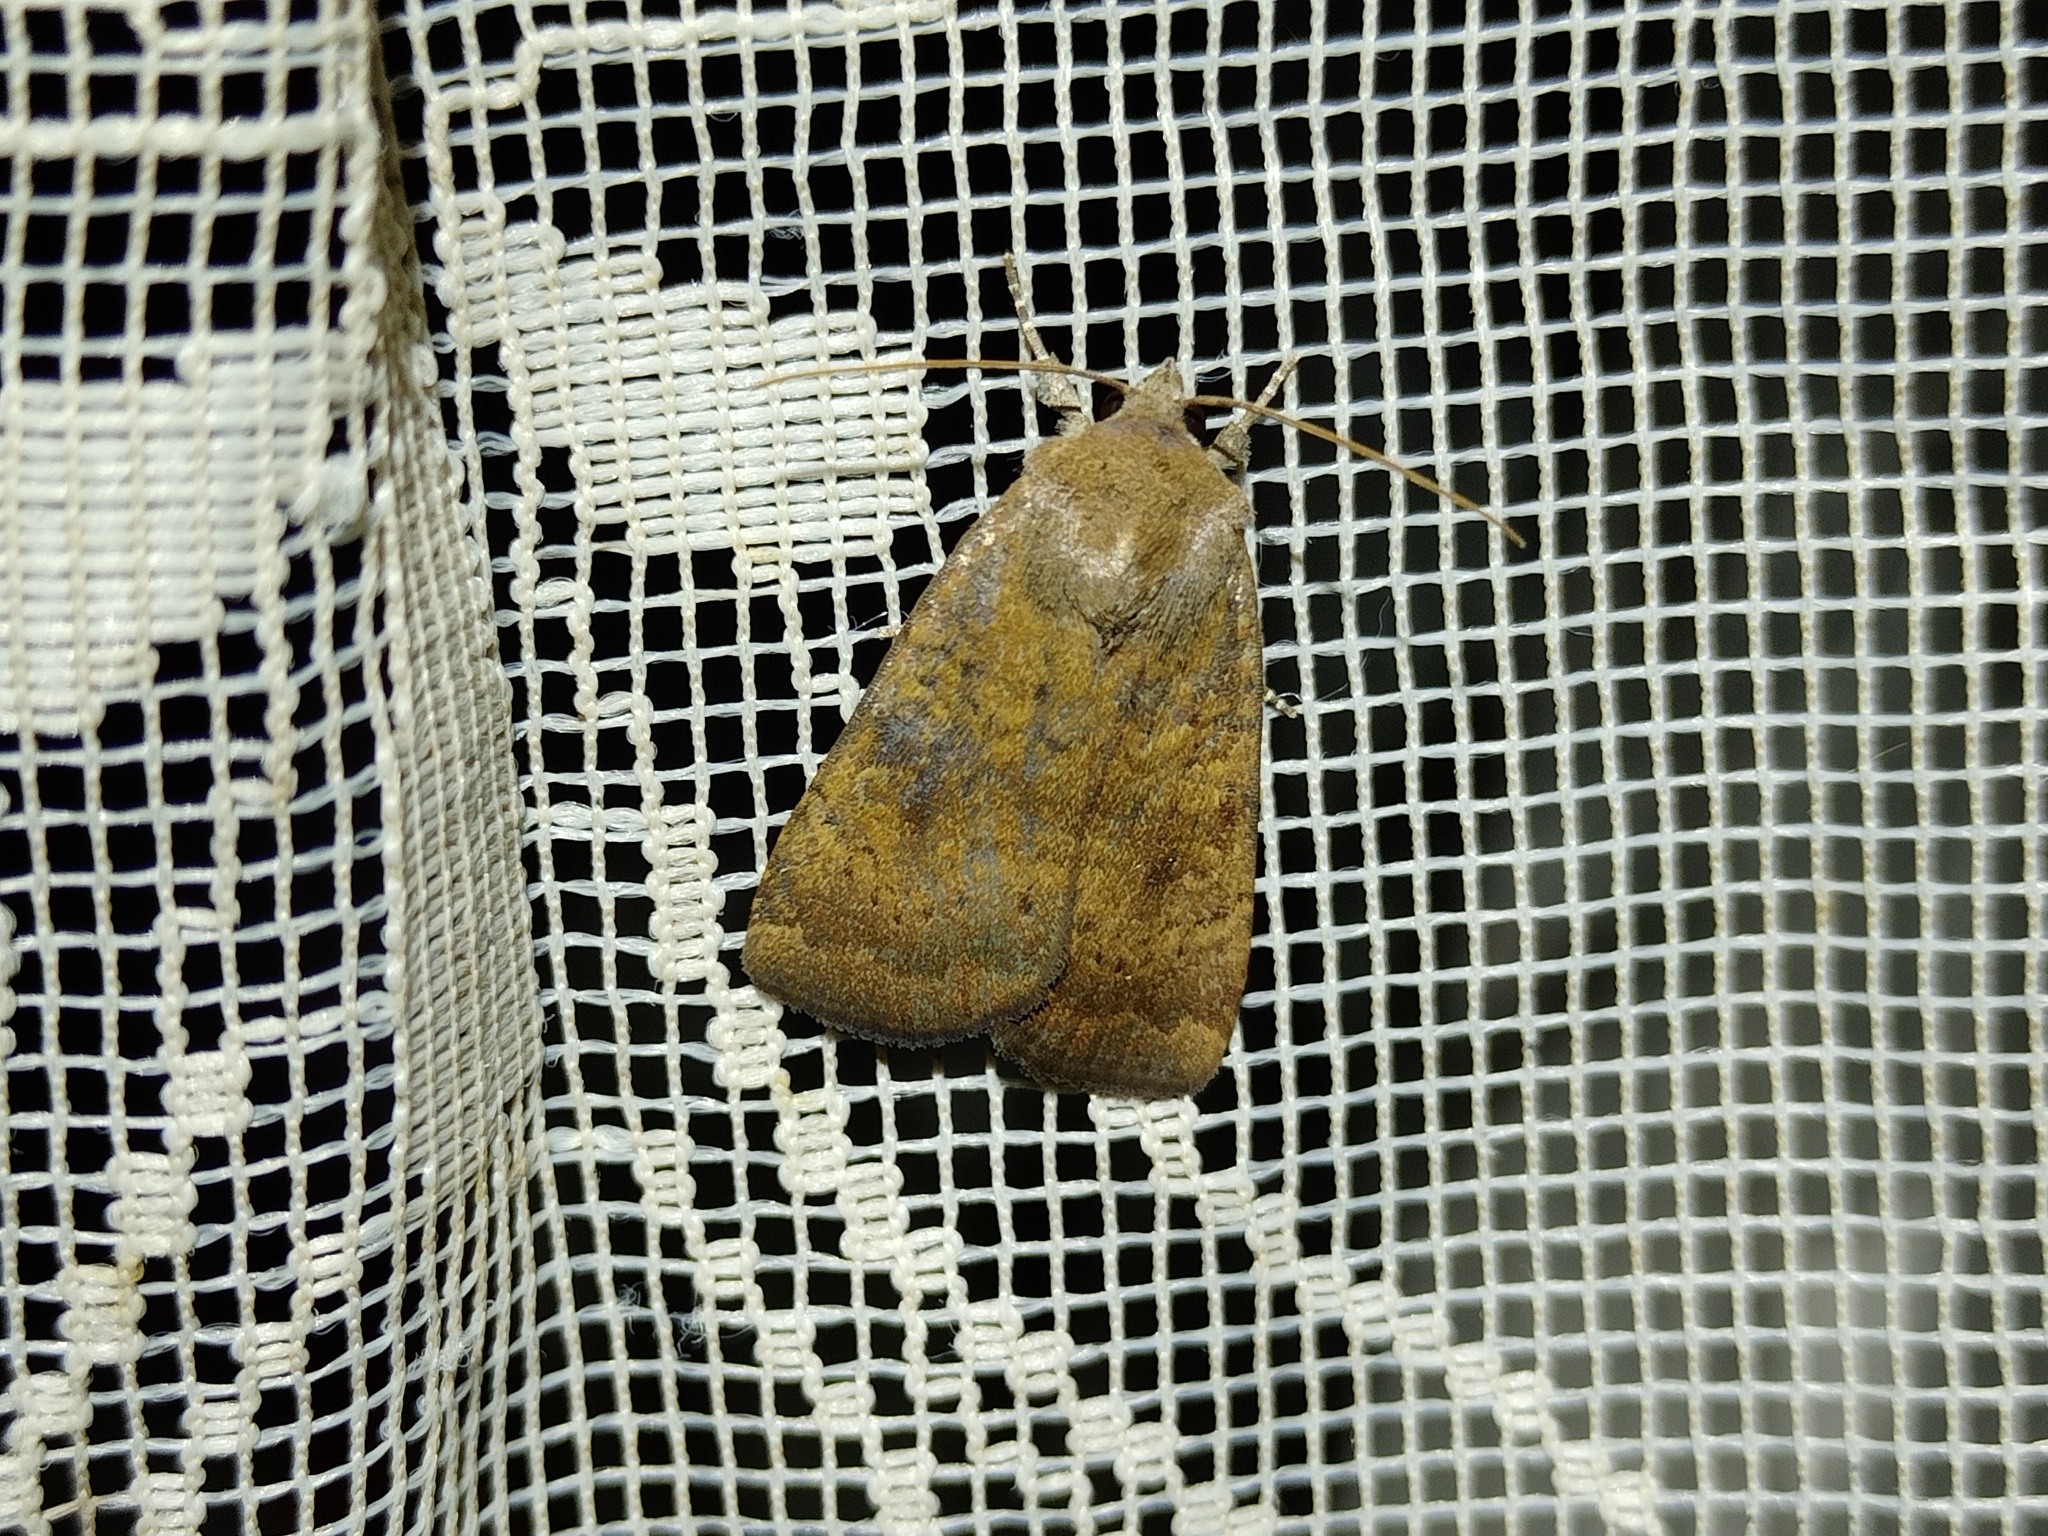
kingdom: Animalia
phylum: Arthropoda
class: Insecta
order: Lepidoptera
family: Noctuidae
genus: Noctua
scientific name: Noctua interjecta
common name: Least yellow underwing
